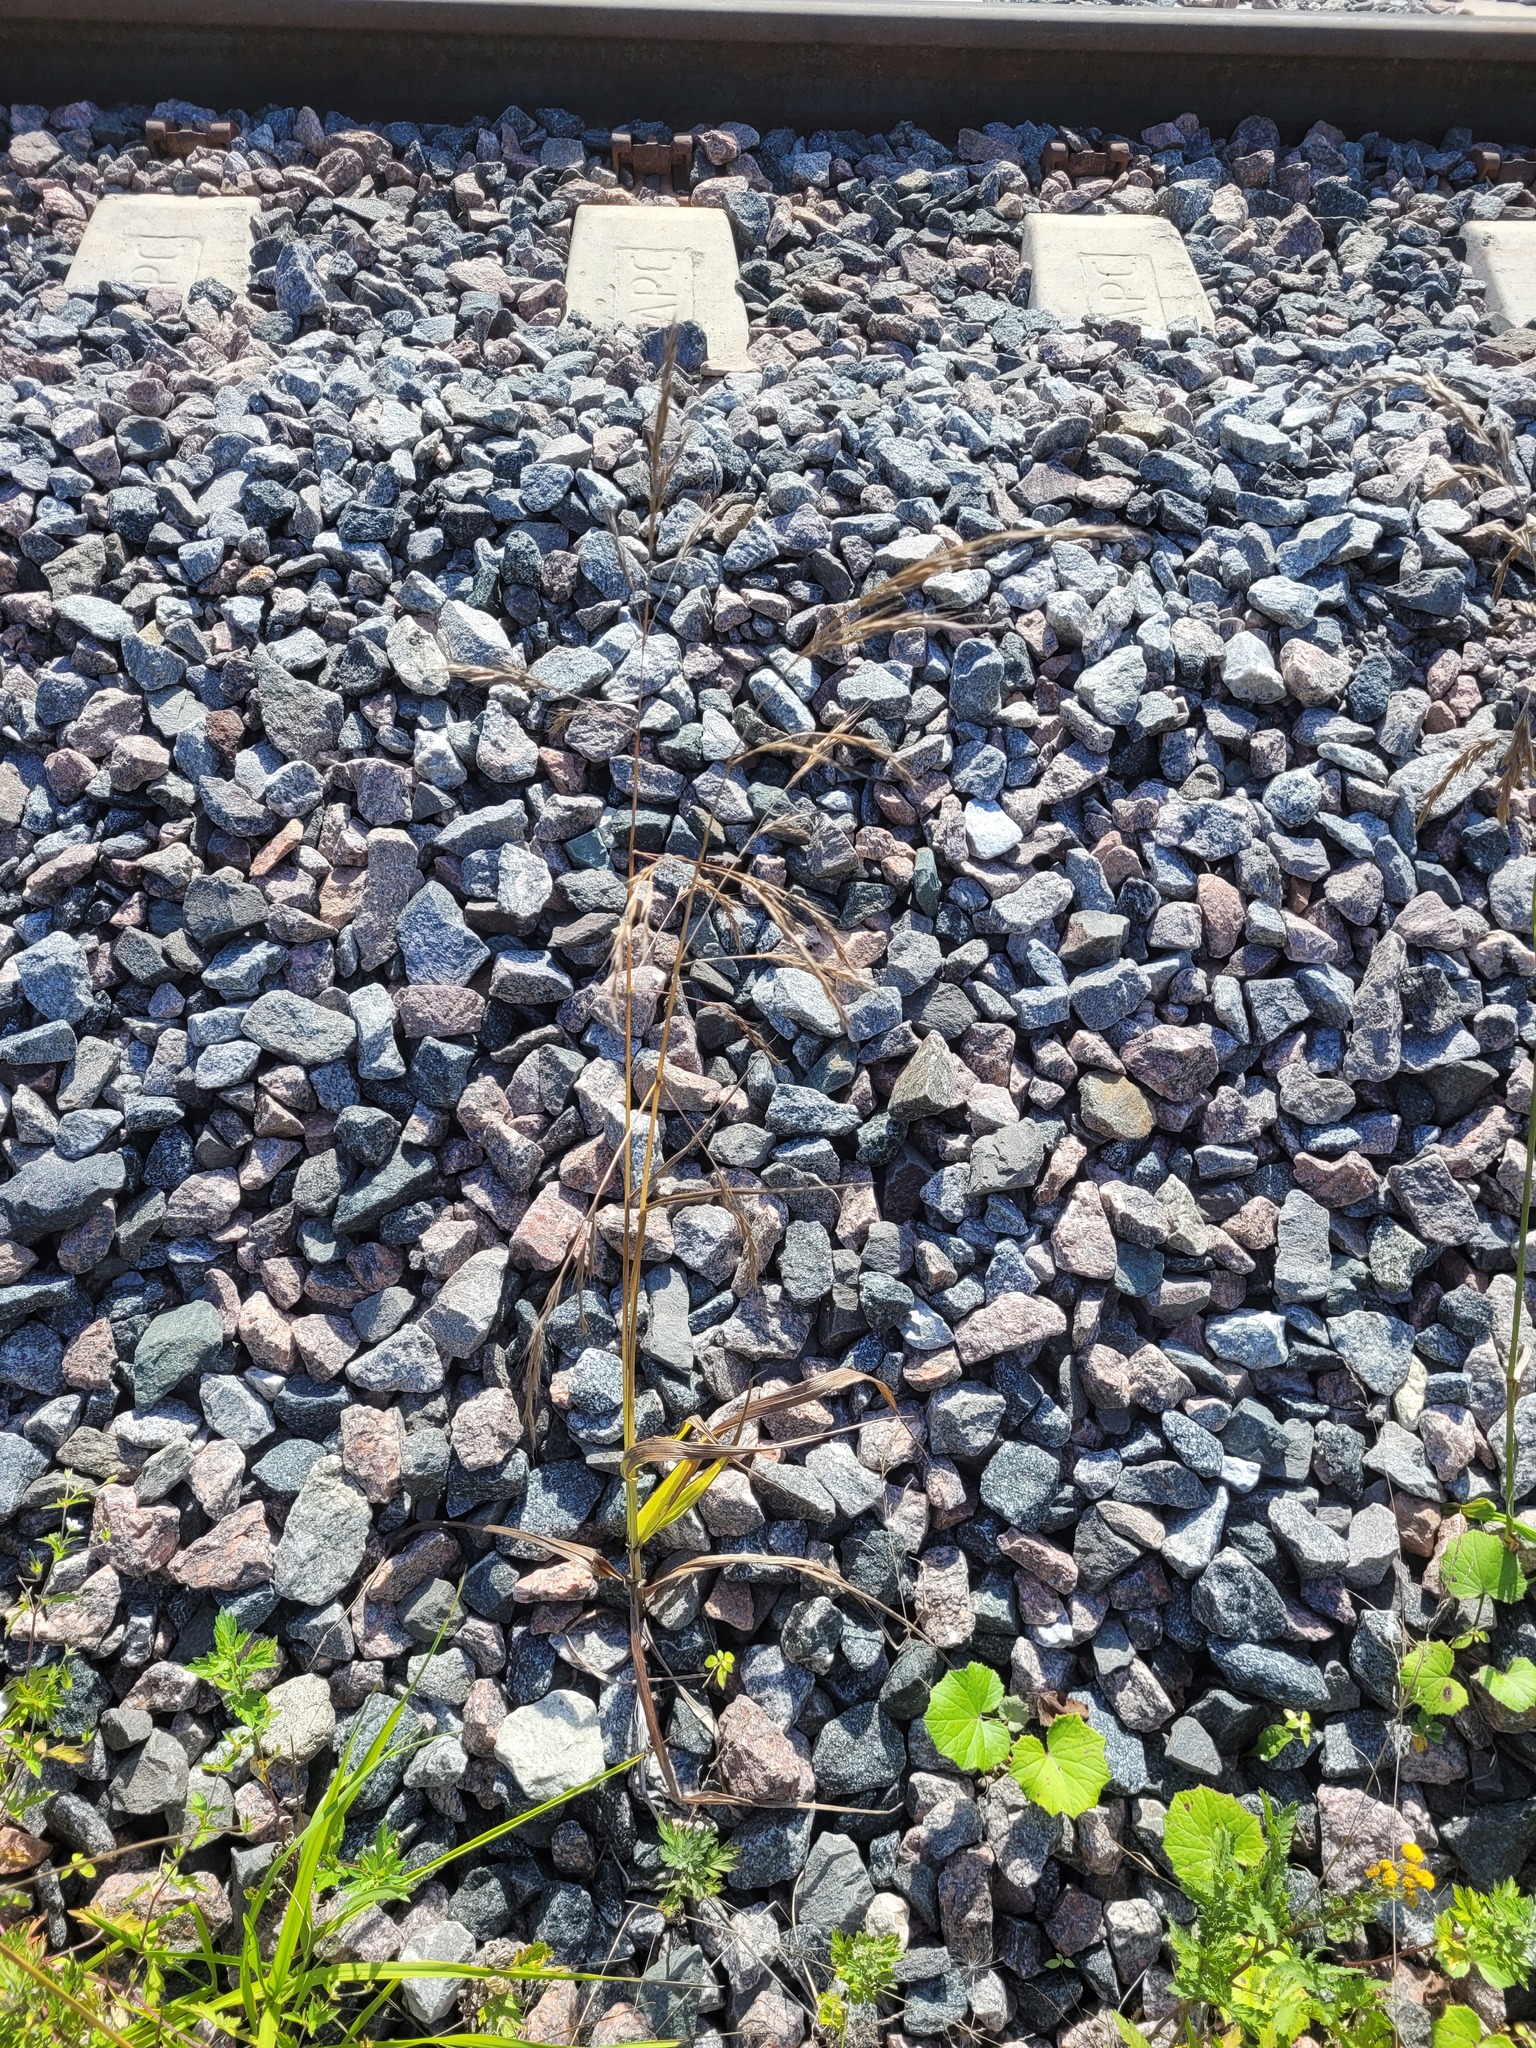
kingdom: Plantae
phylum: Tracheophyta
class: Liliopsida
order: Poales
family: Poaceae
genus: Lolium
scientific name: Lolium giganteum
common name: Giant fescue
